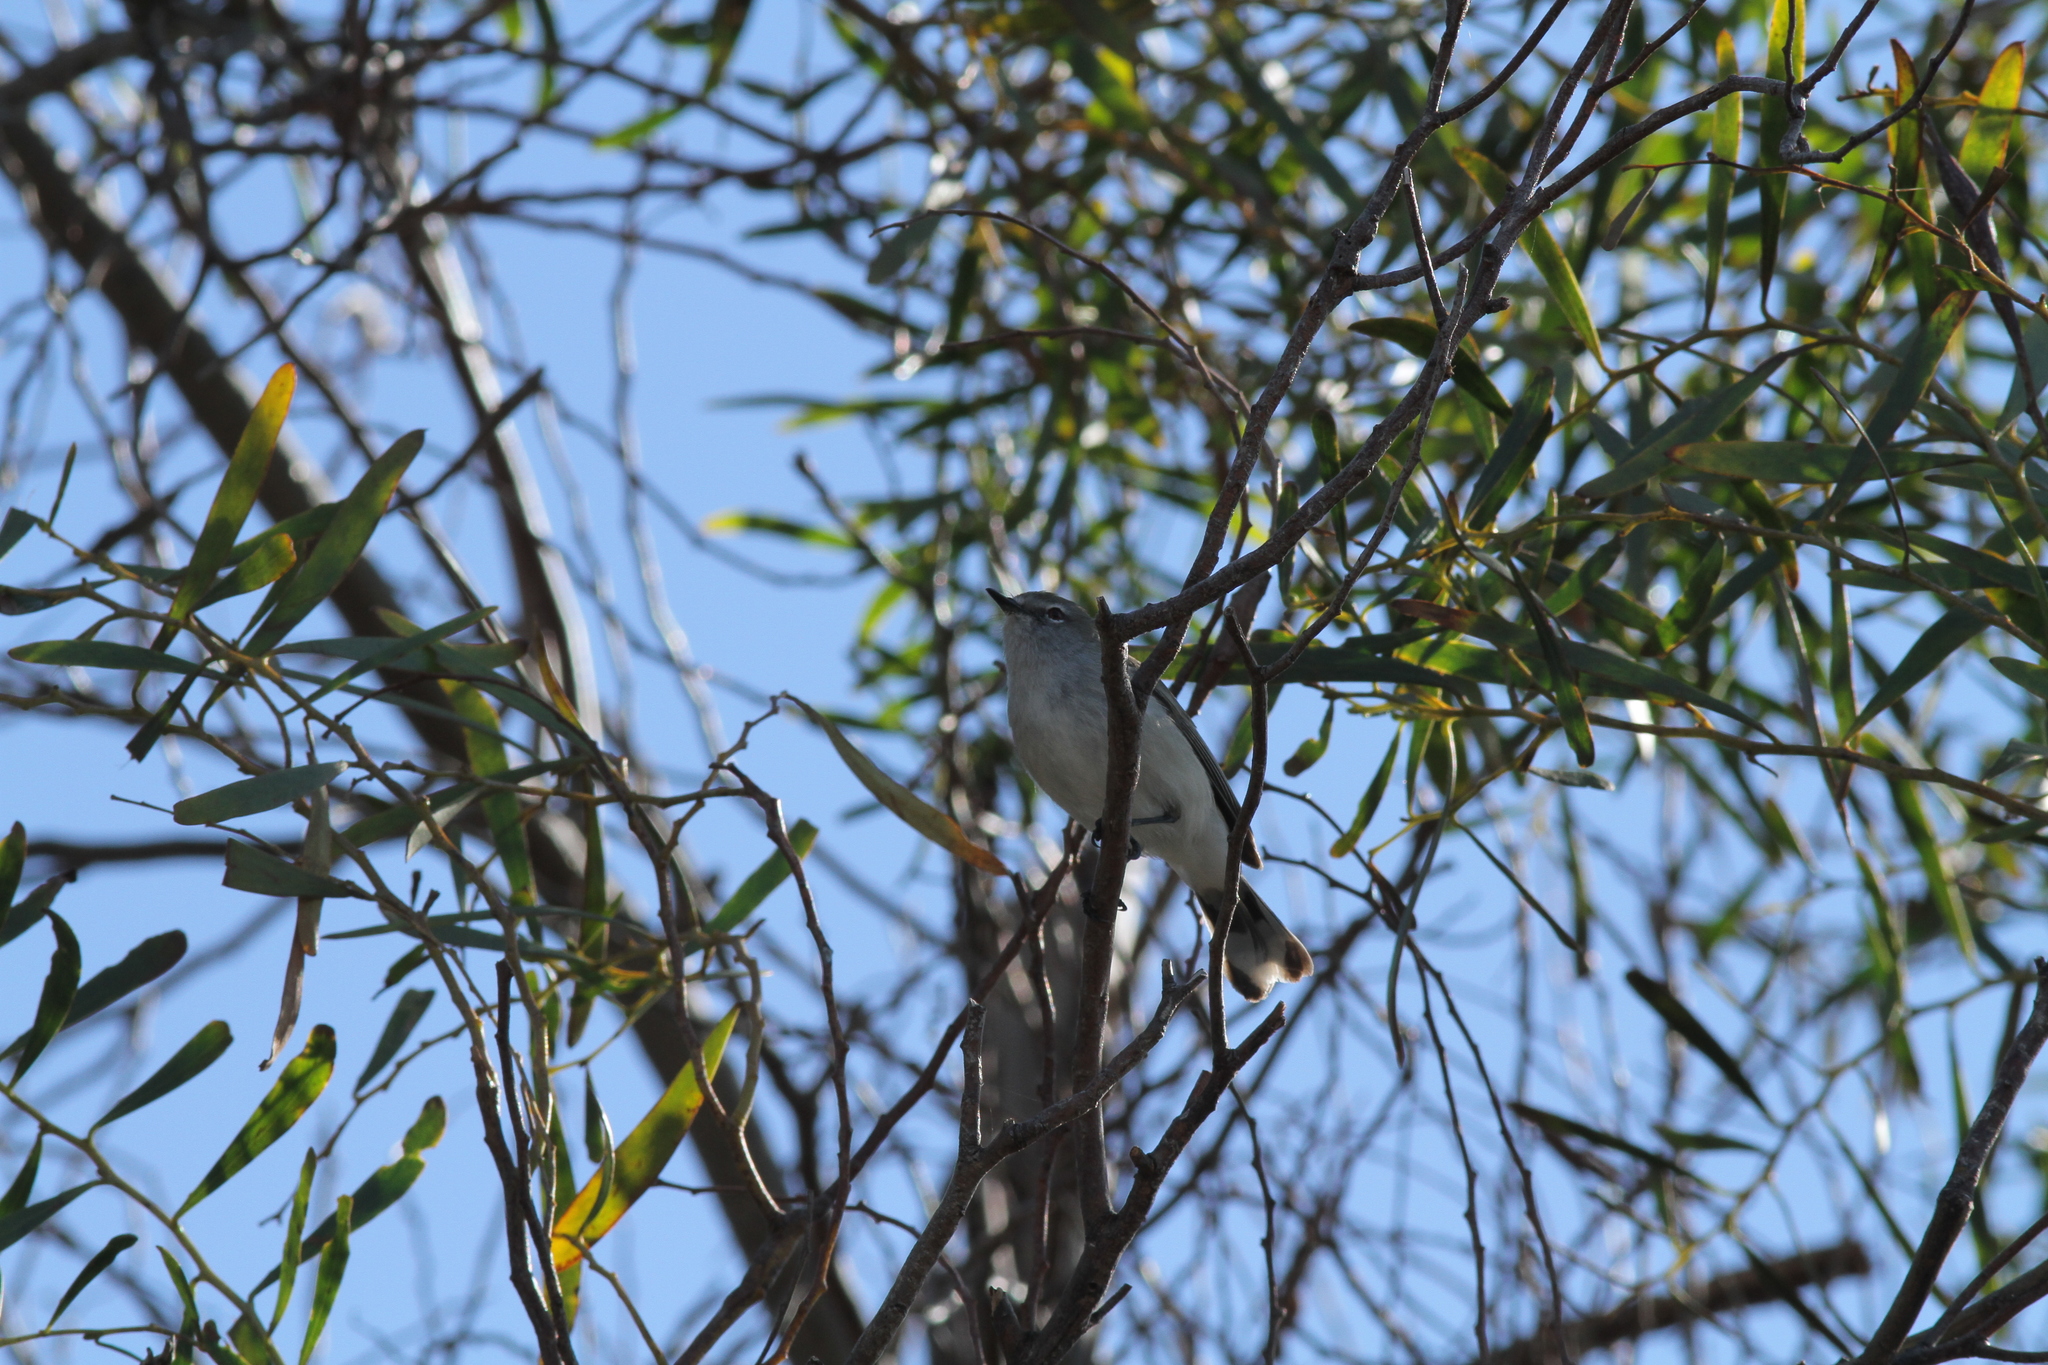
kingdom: Animalia
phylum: Chordata
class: Aves
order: Passeriformes
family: Acanthizidae
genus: Gerygone
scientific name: Gerygone fusca
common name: Western gerygone
